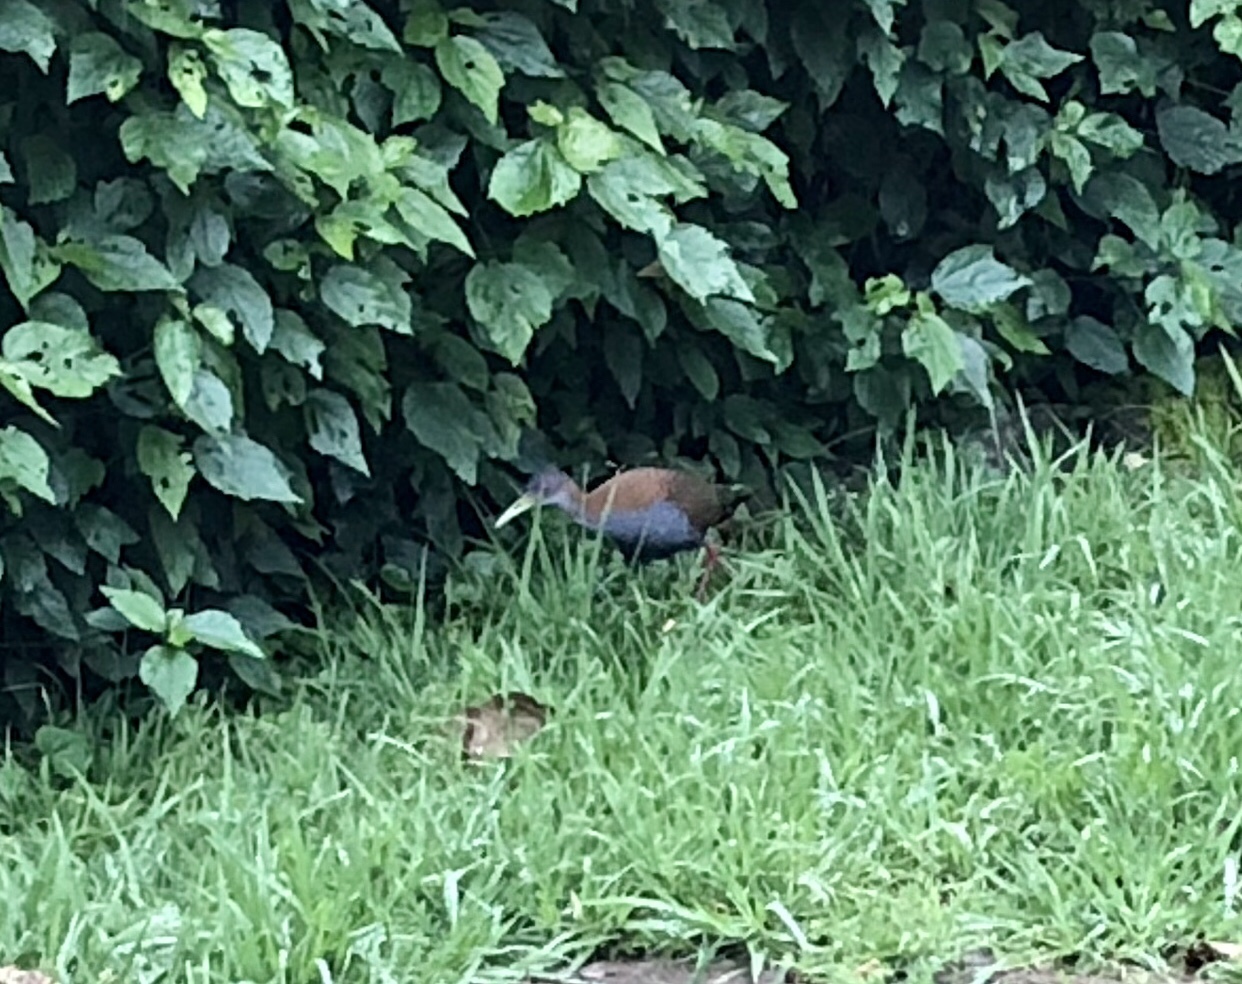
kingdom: Animalia
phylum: Chordata
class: Aves
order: Gruiformes
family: Rallidae
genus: Aramides
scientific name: Aramides saracura
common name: Slaty-breasted wood rail
